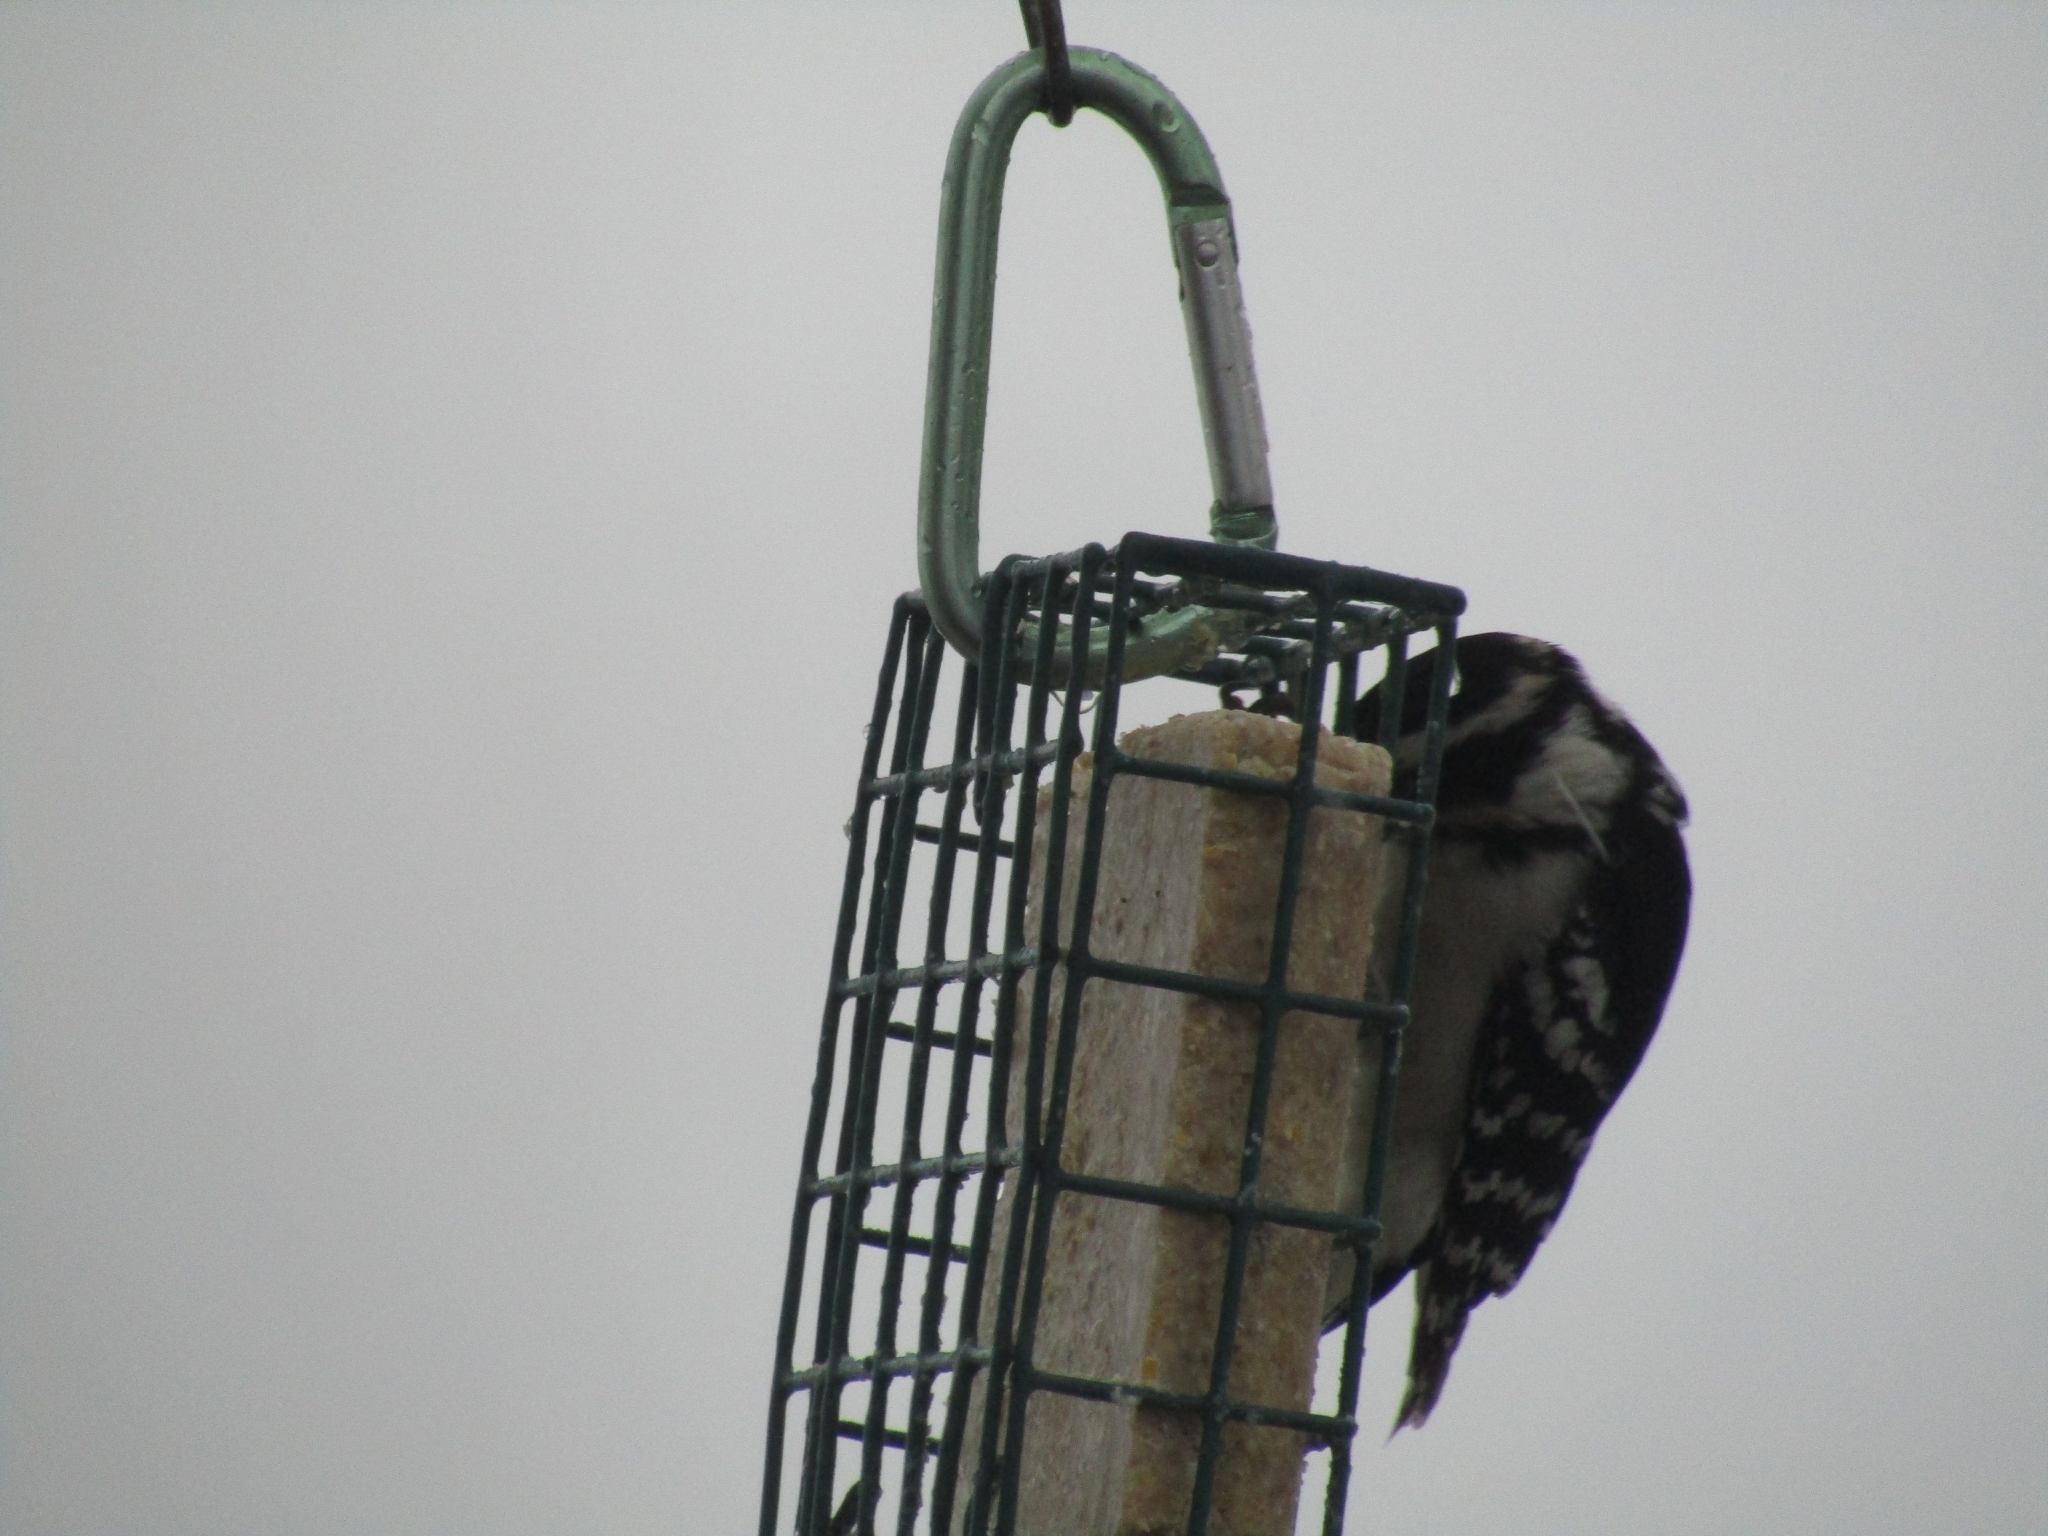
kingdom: Animalia
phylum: Chordata
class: Aves
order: Piciformes
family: Picidae
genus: Dryobates
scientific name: Dryobates pubescens
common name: Downy woodpecker
